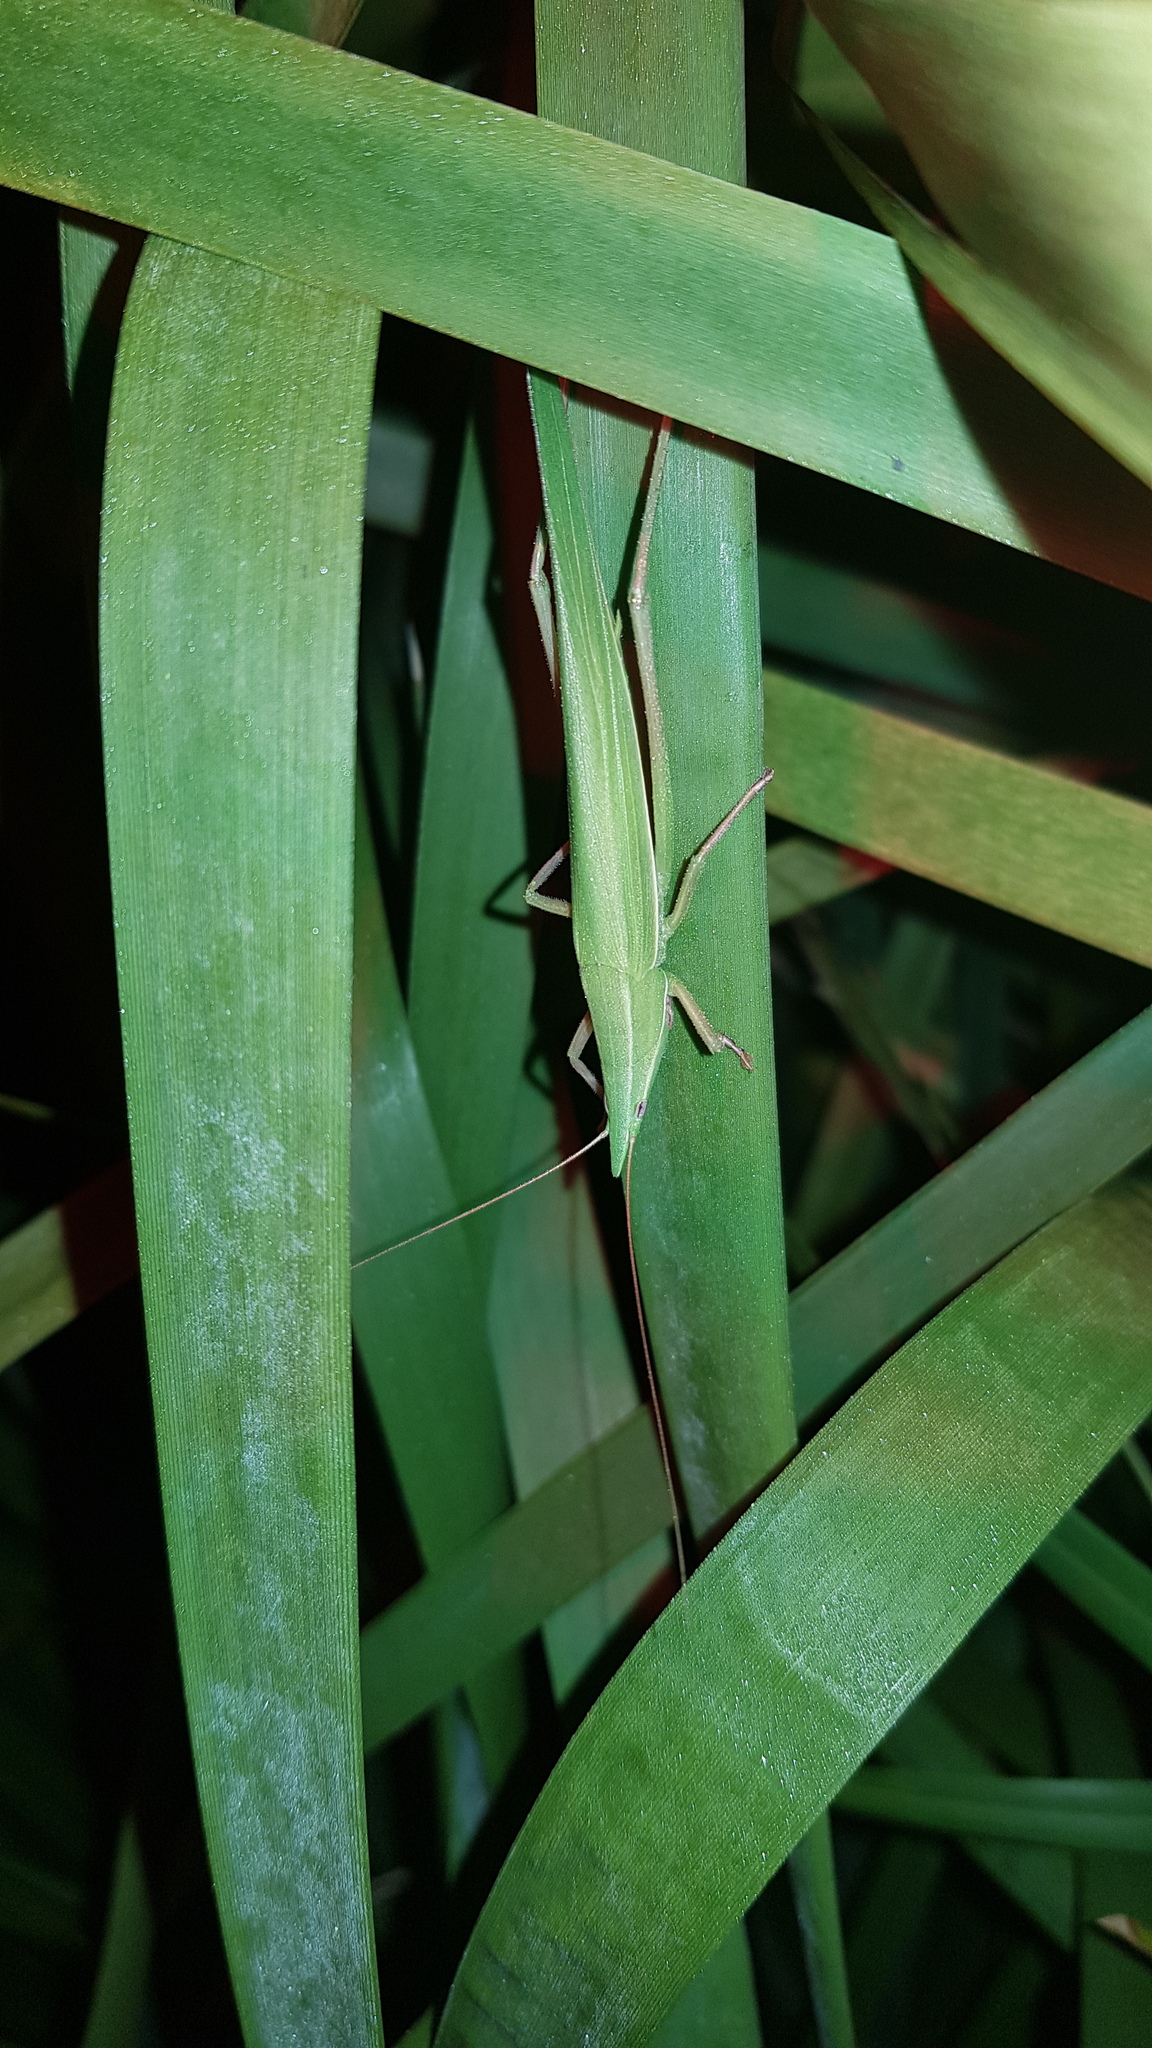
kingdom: Animalia
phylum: Arthropoda
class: Insecta
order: Orthoptera
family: Tettigoniidae
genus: Pseudorhynchus
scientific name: Pseudorhynchus lessonii
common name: Lesson's mimicking snout nose
